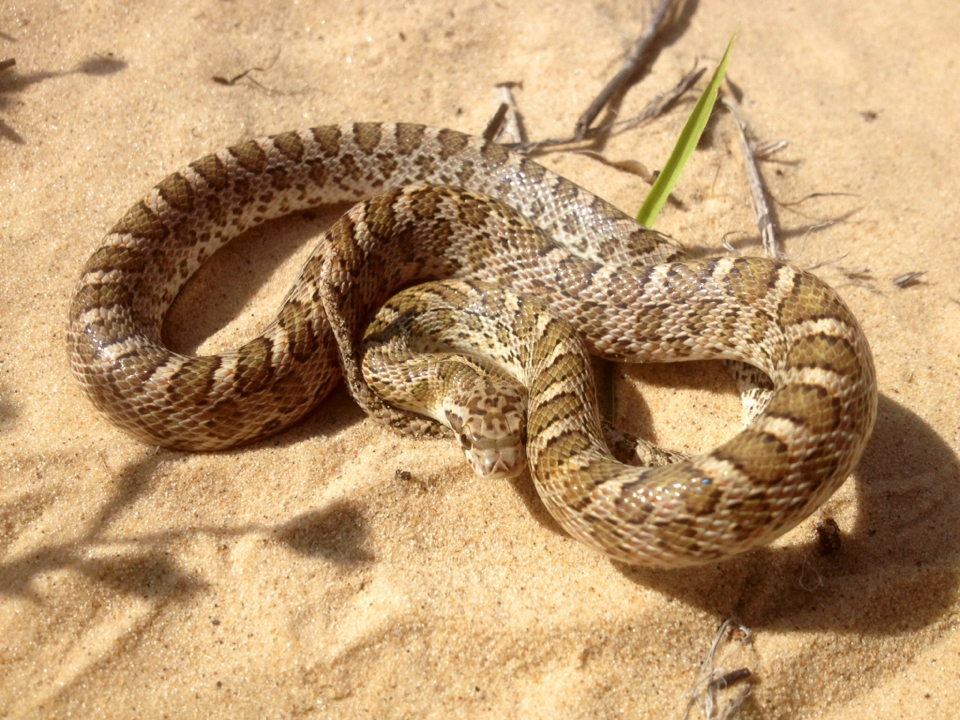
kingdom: Animalia
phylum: Chordata
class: Squamata
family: Colubridae
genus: Arizona
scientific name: Arizona elegans
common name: Glossy snake
